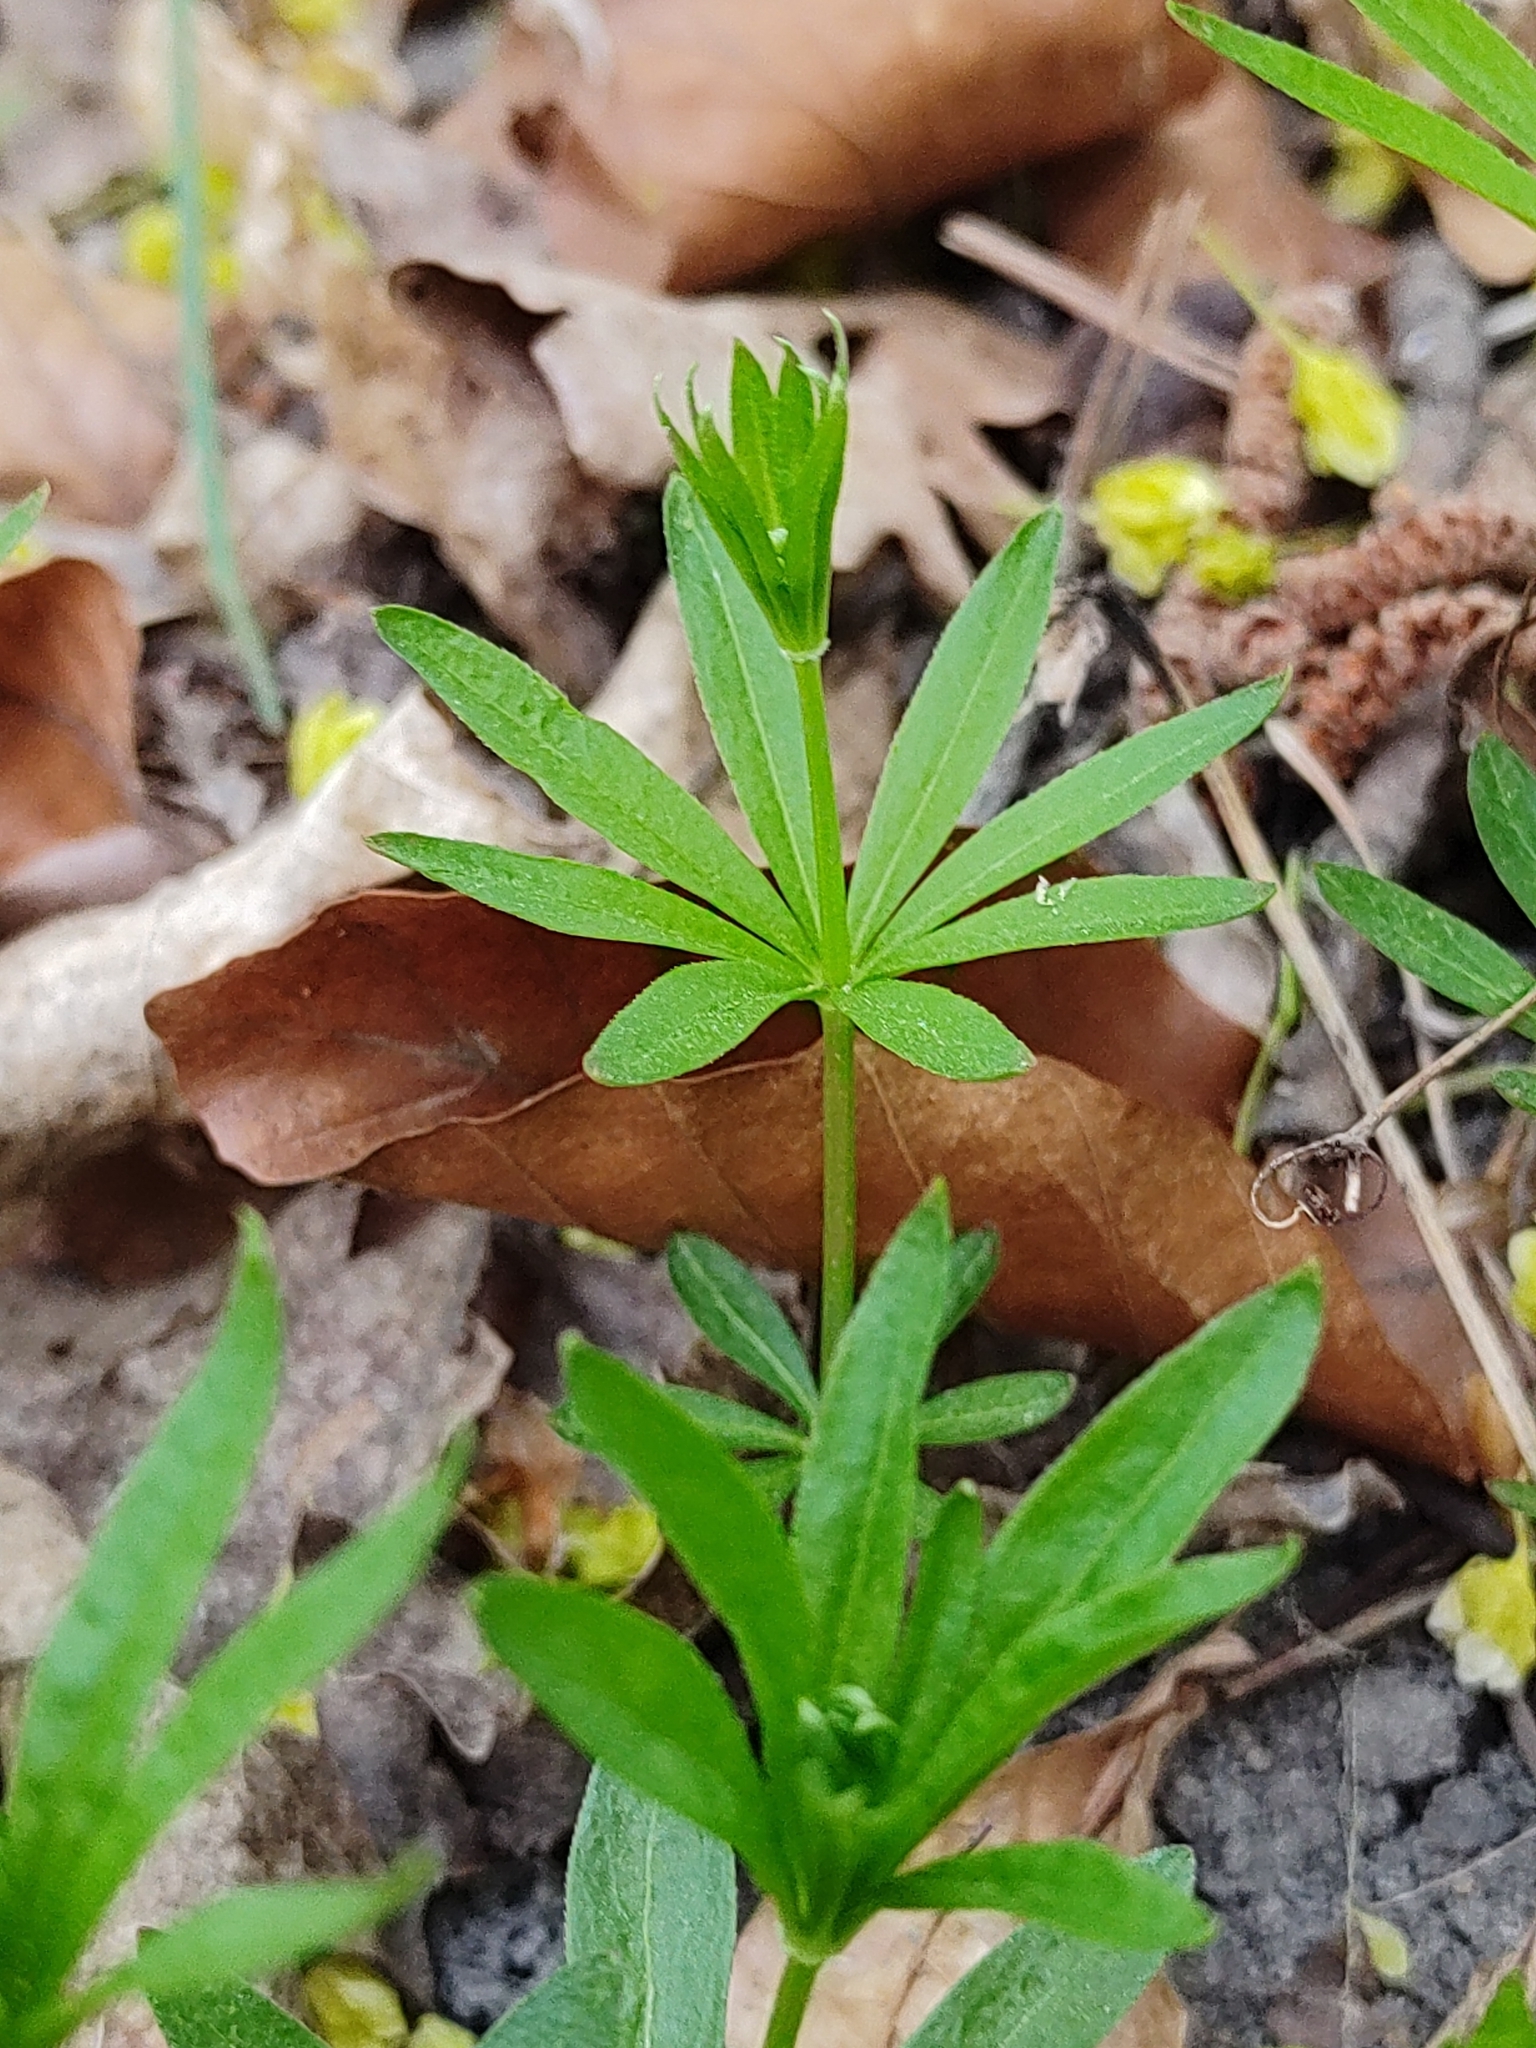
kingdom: Plantae
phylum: Tracheophyta
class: Magnoliopsida
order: Gentianales
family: Rubiaceae
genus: Galium
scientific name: Galium odoratum
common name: Sweet woodruff
